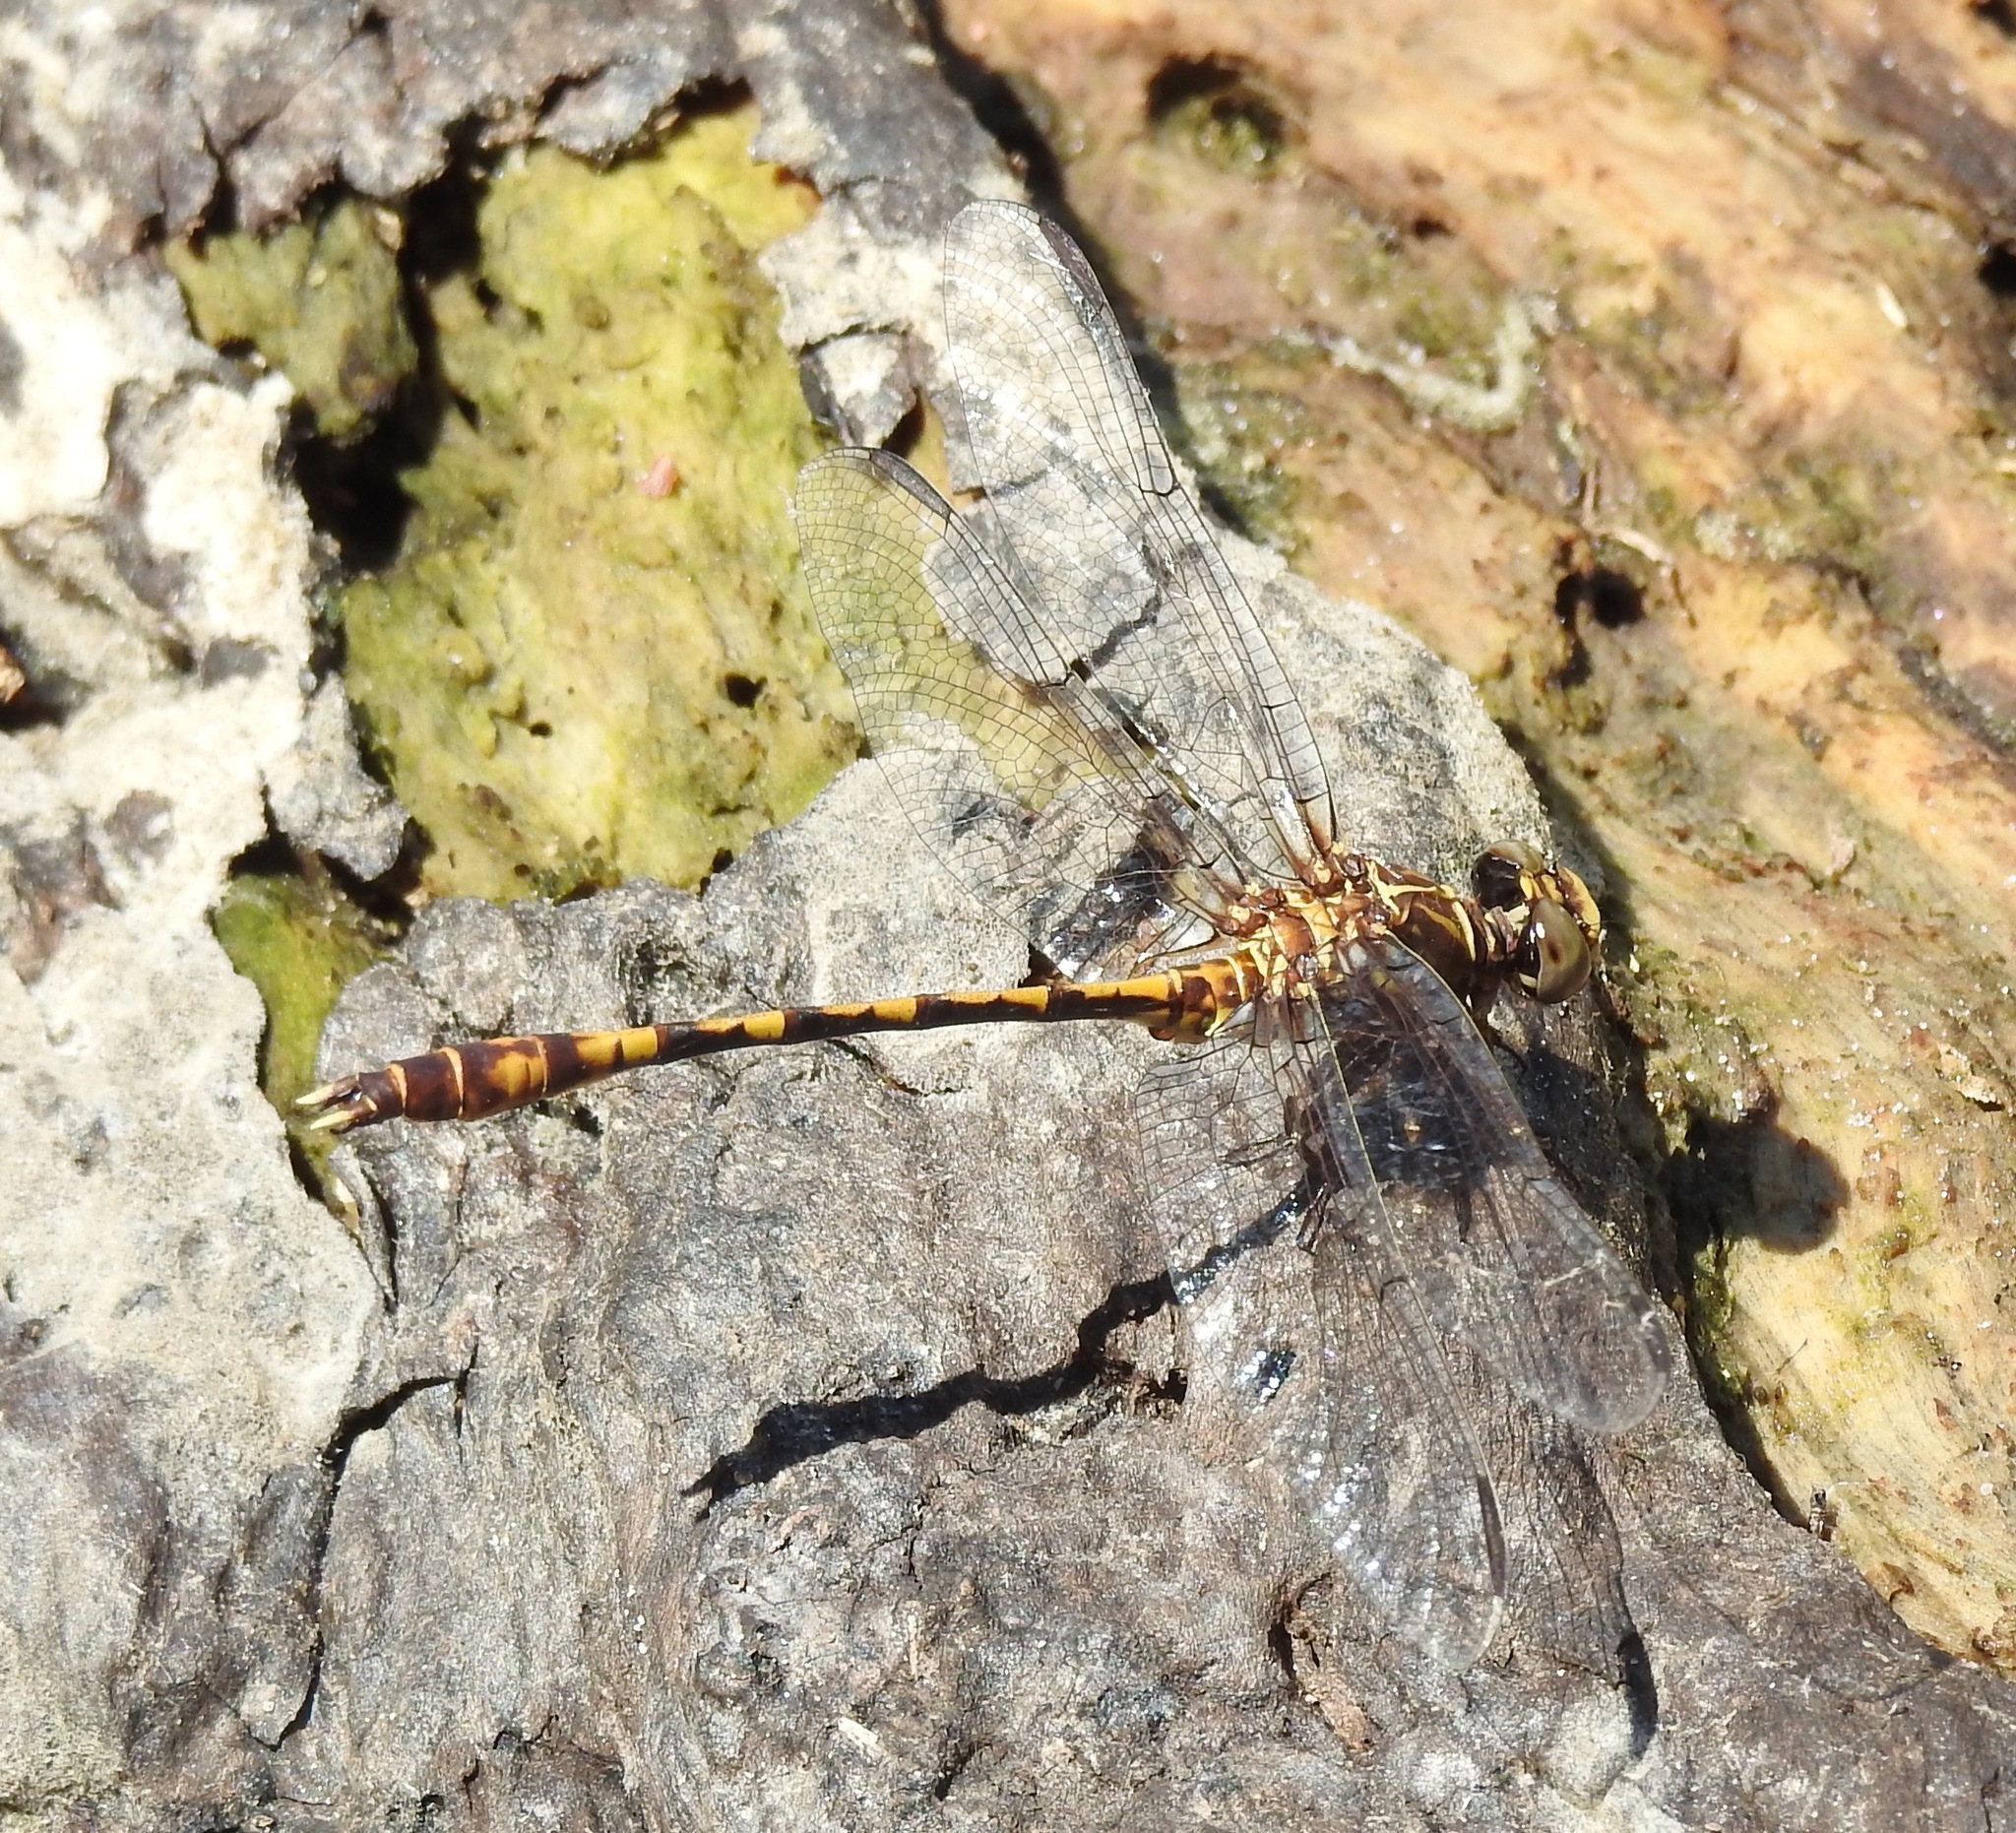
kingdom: Animalia
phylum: Arthropoda
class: Insecta
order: Odonata
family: Gomphidae
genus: Progomphus
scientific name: Progomphus alachuensis
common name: Tawny sanddragon
